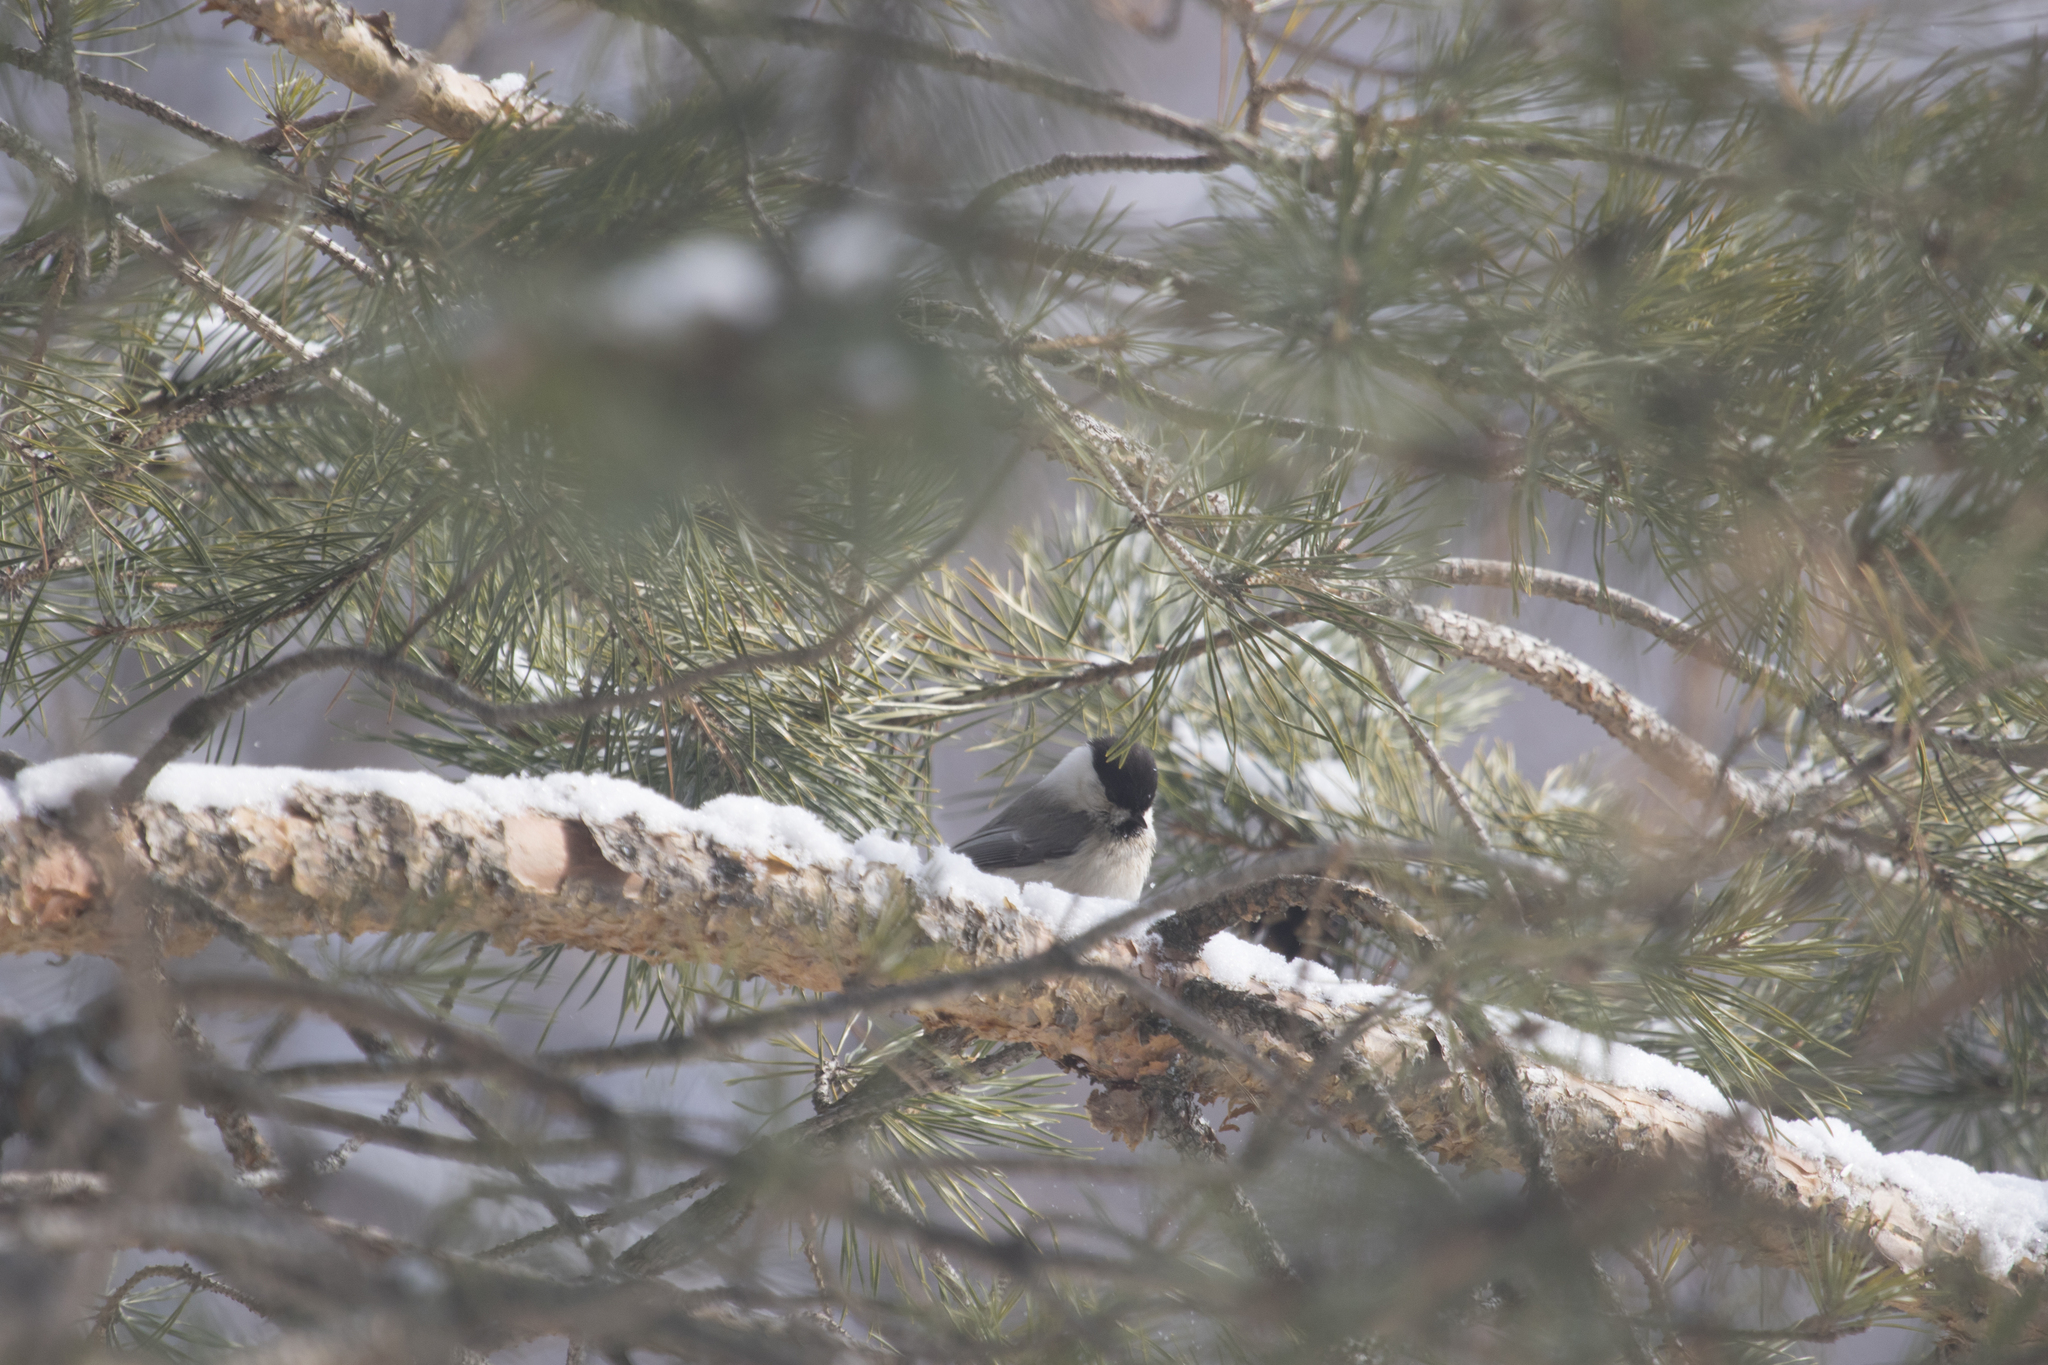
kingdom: Animalia
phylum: Chordata
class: Aves
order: Passeriformes
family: Paridae
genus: Poecile
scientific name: Poecile montanus
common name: Willow tit
